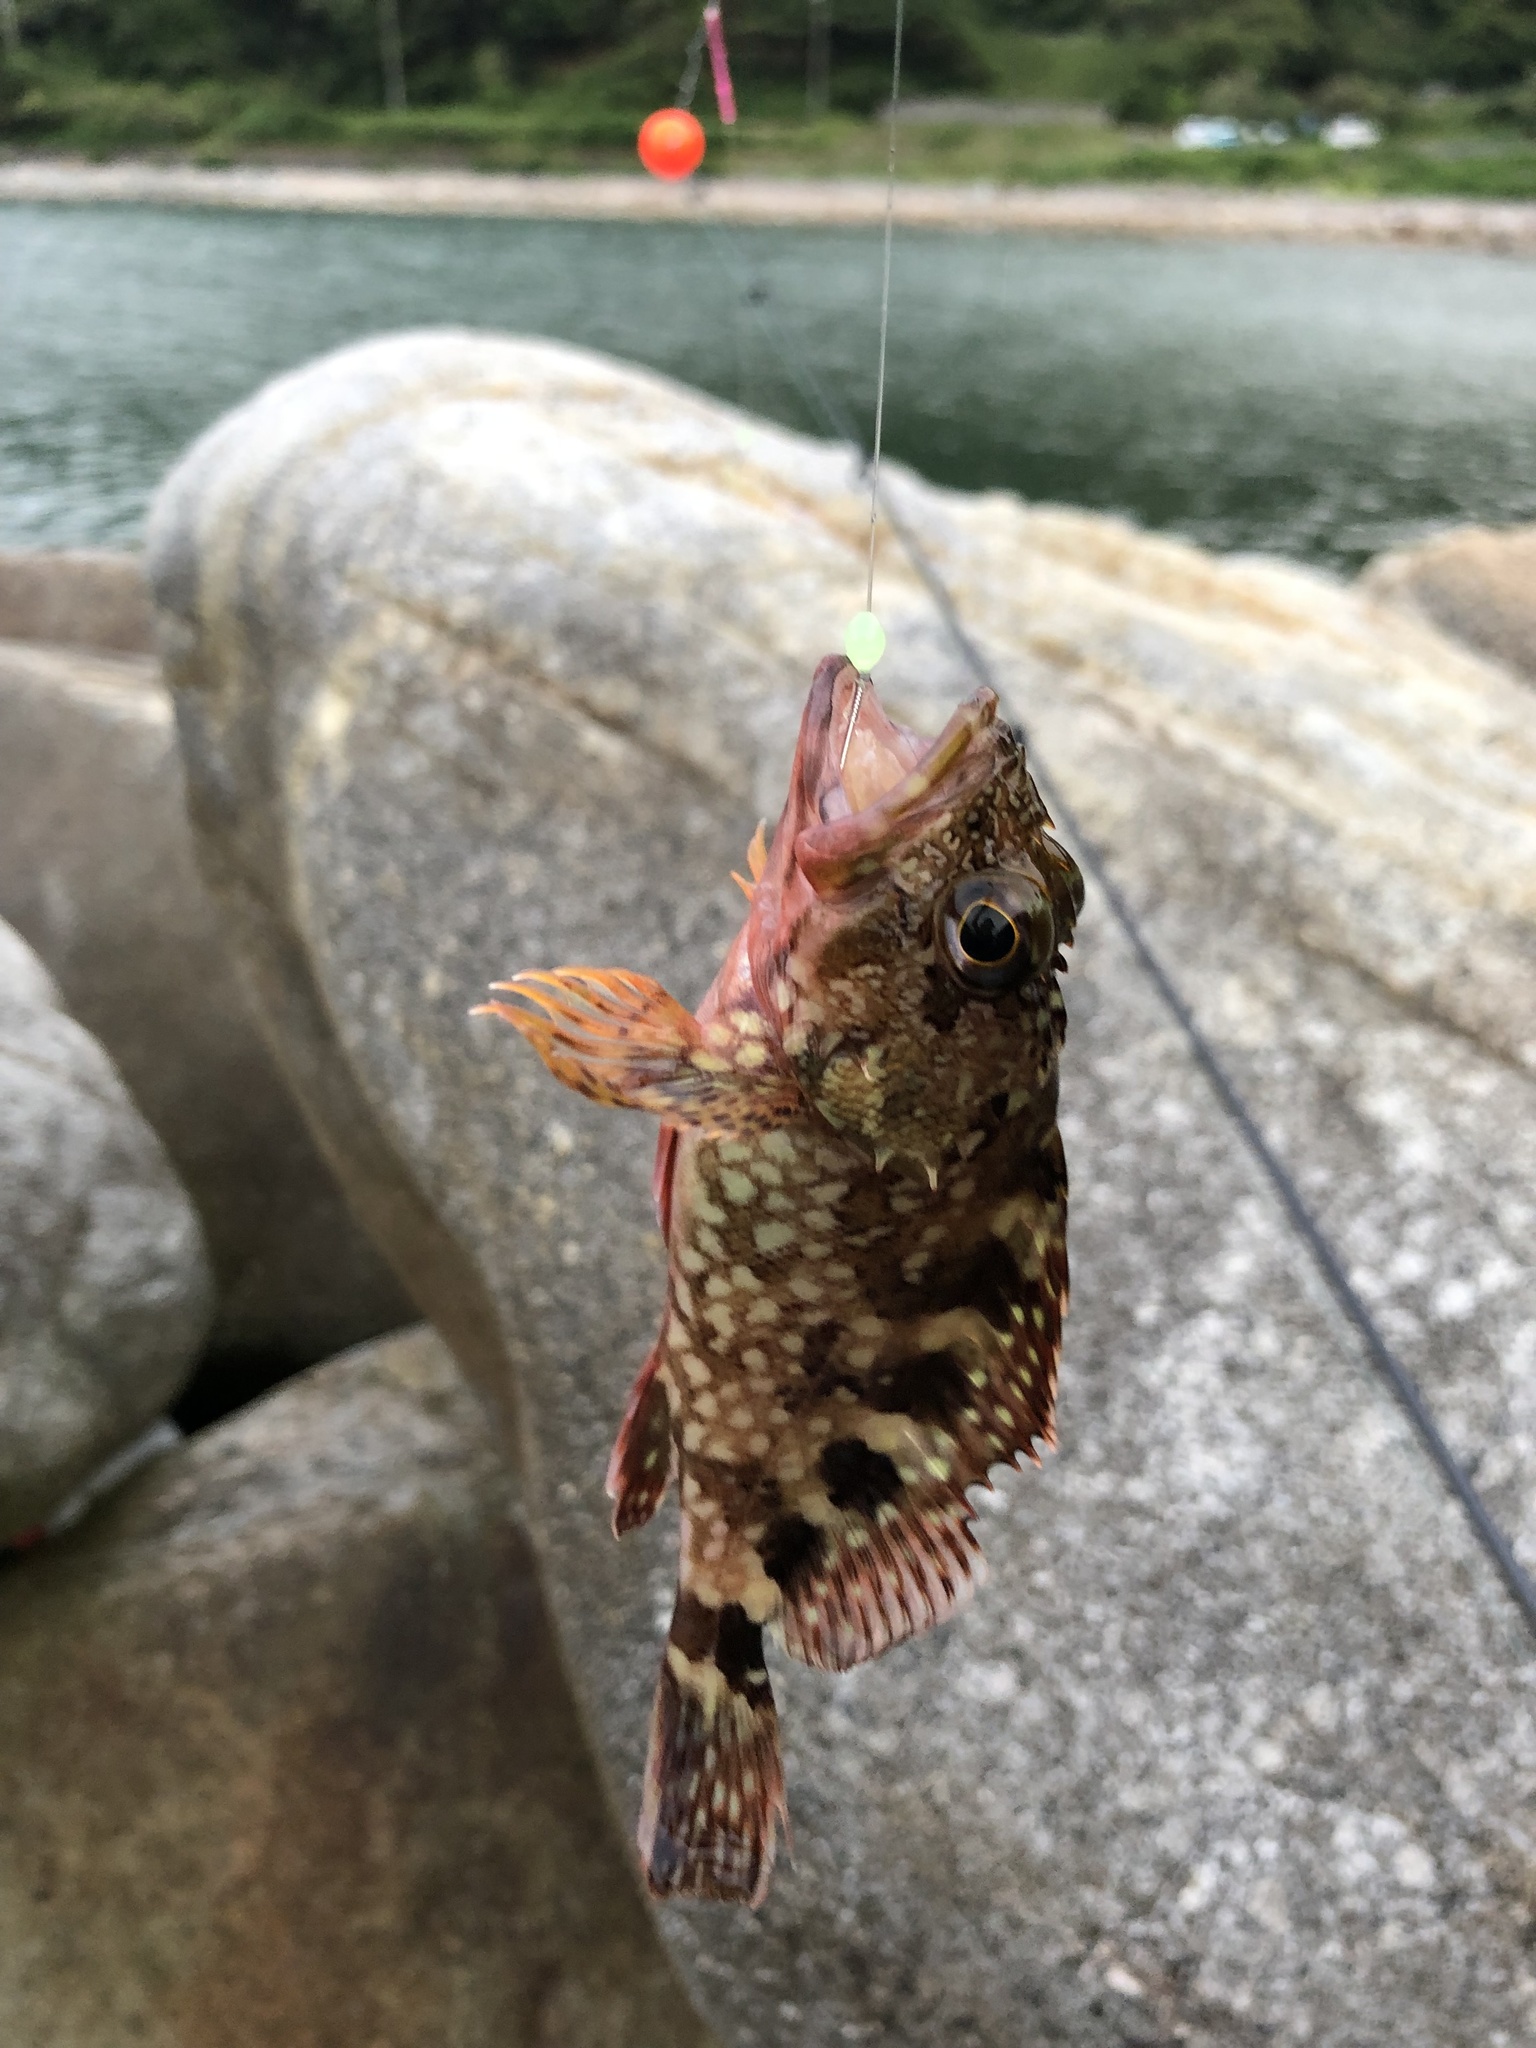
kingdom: Animalia
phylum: Chordata
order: Scorpaeniformes
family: Sebastidae
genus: Sebastiscus
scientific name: Sebastiscus marmoratus
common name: False kelpfish
